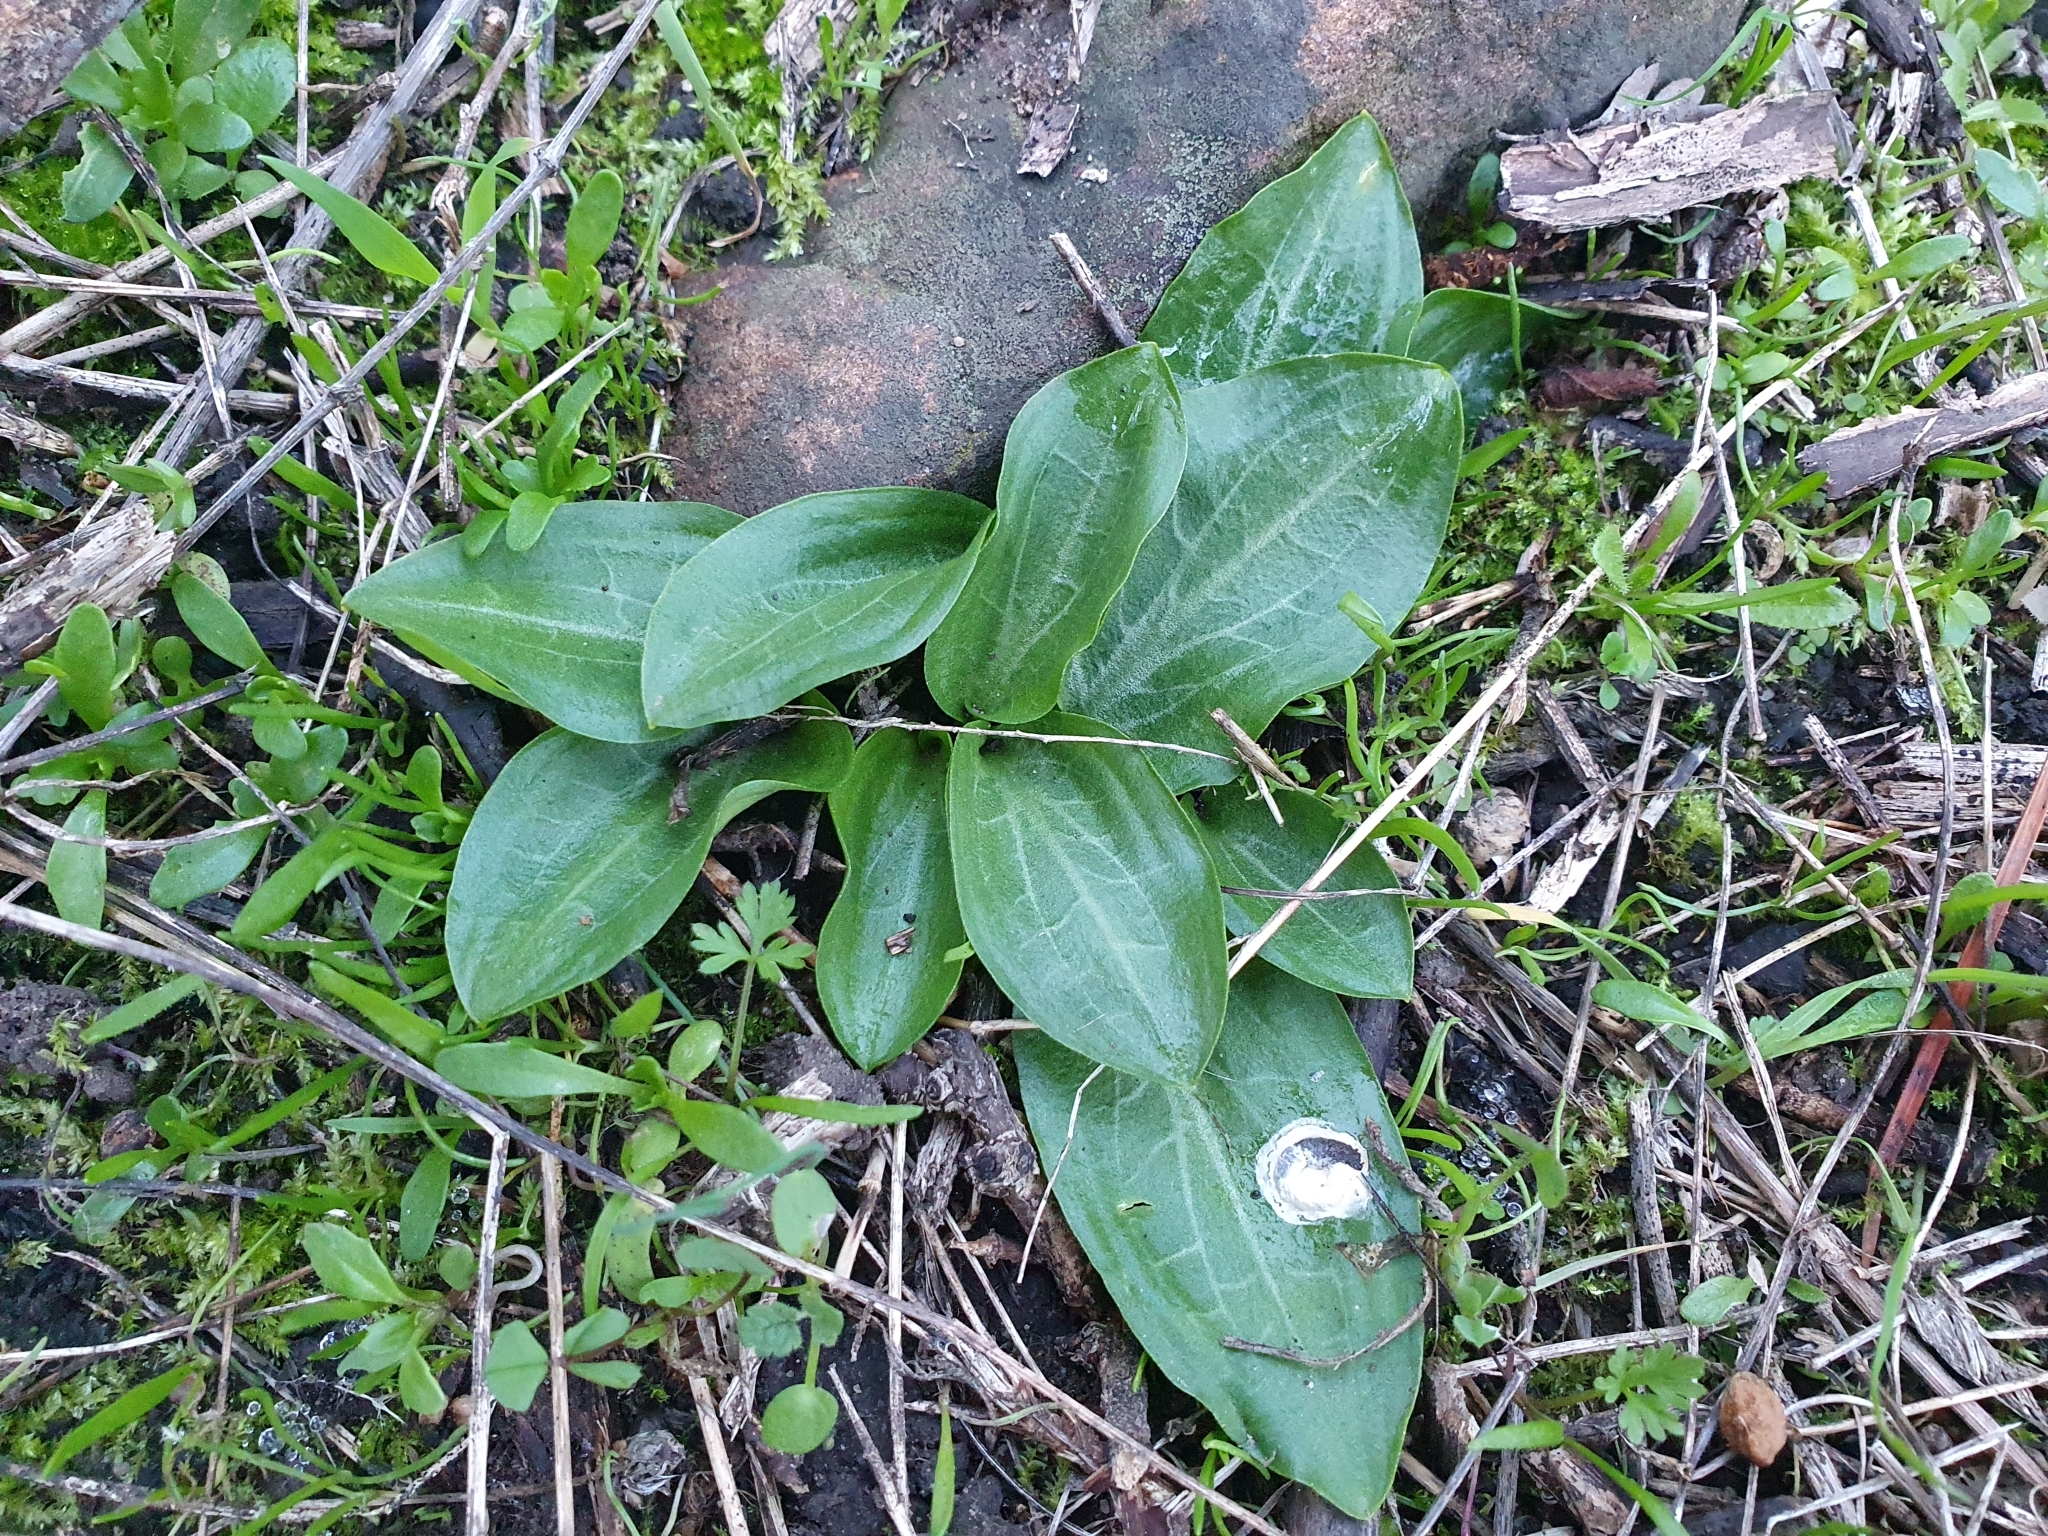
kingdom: Plantae
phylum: Tracheophyta
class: Liliopsida
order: Alismatales
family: Araceae
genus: Ambrosina
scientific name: Ambrosina bassii
